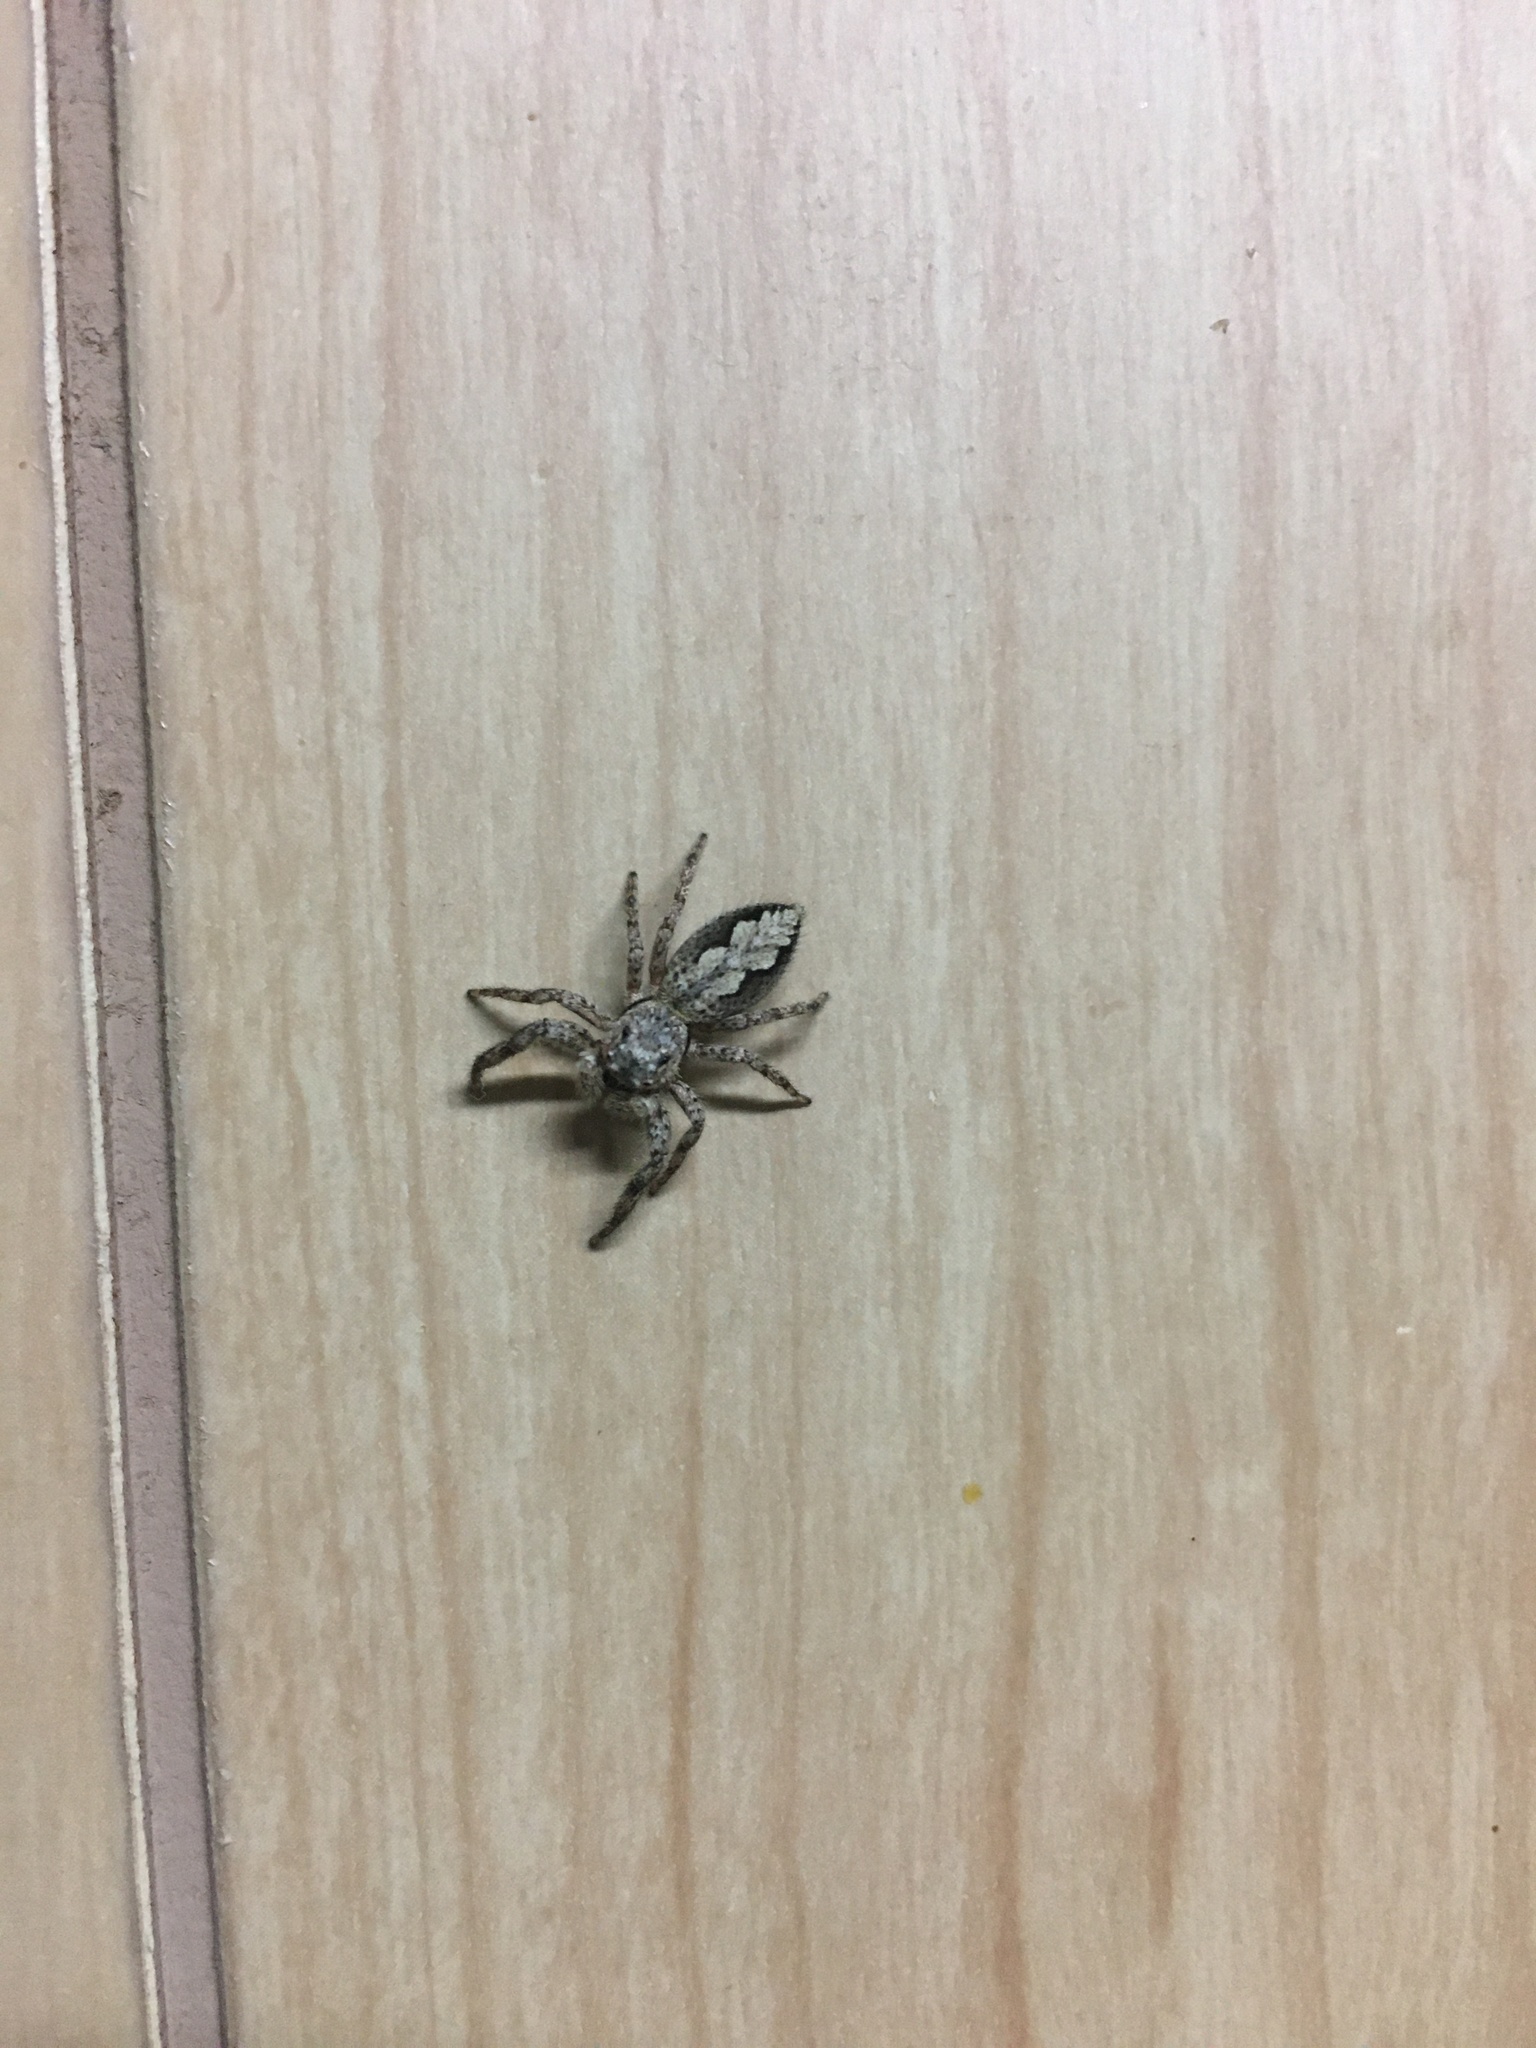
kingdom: Animalia
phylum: Arthropoda
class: Arachnida
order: Araneae
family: Salticidae
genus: Platycryptus
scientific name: Platycryptus undatus
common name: Tan jumping spider
